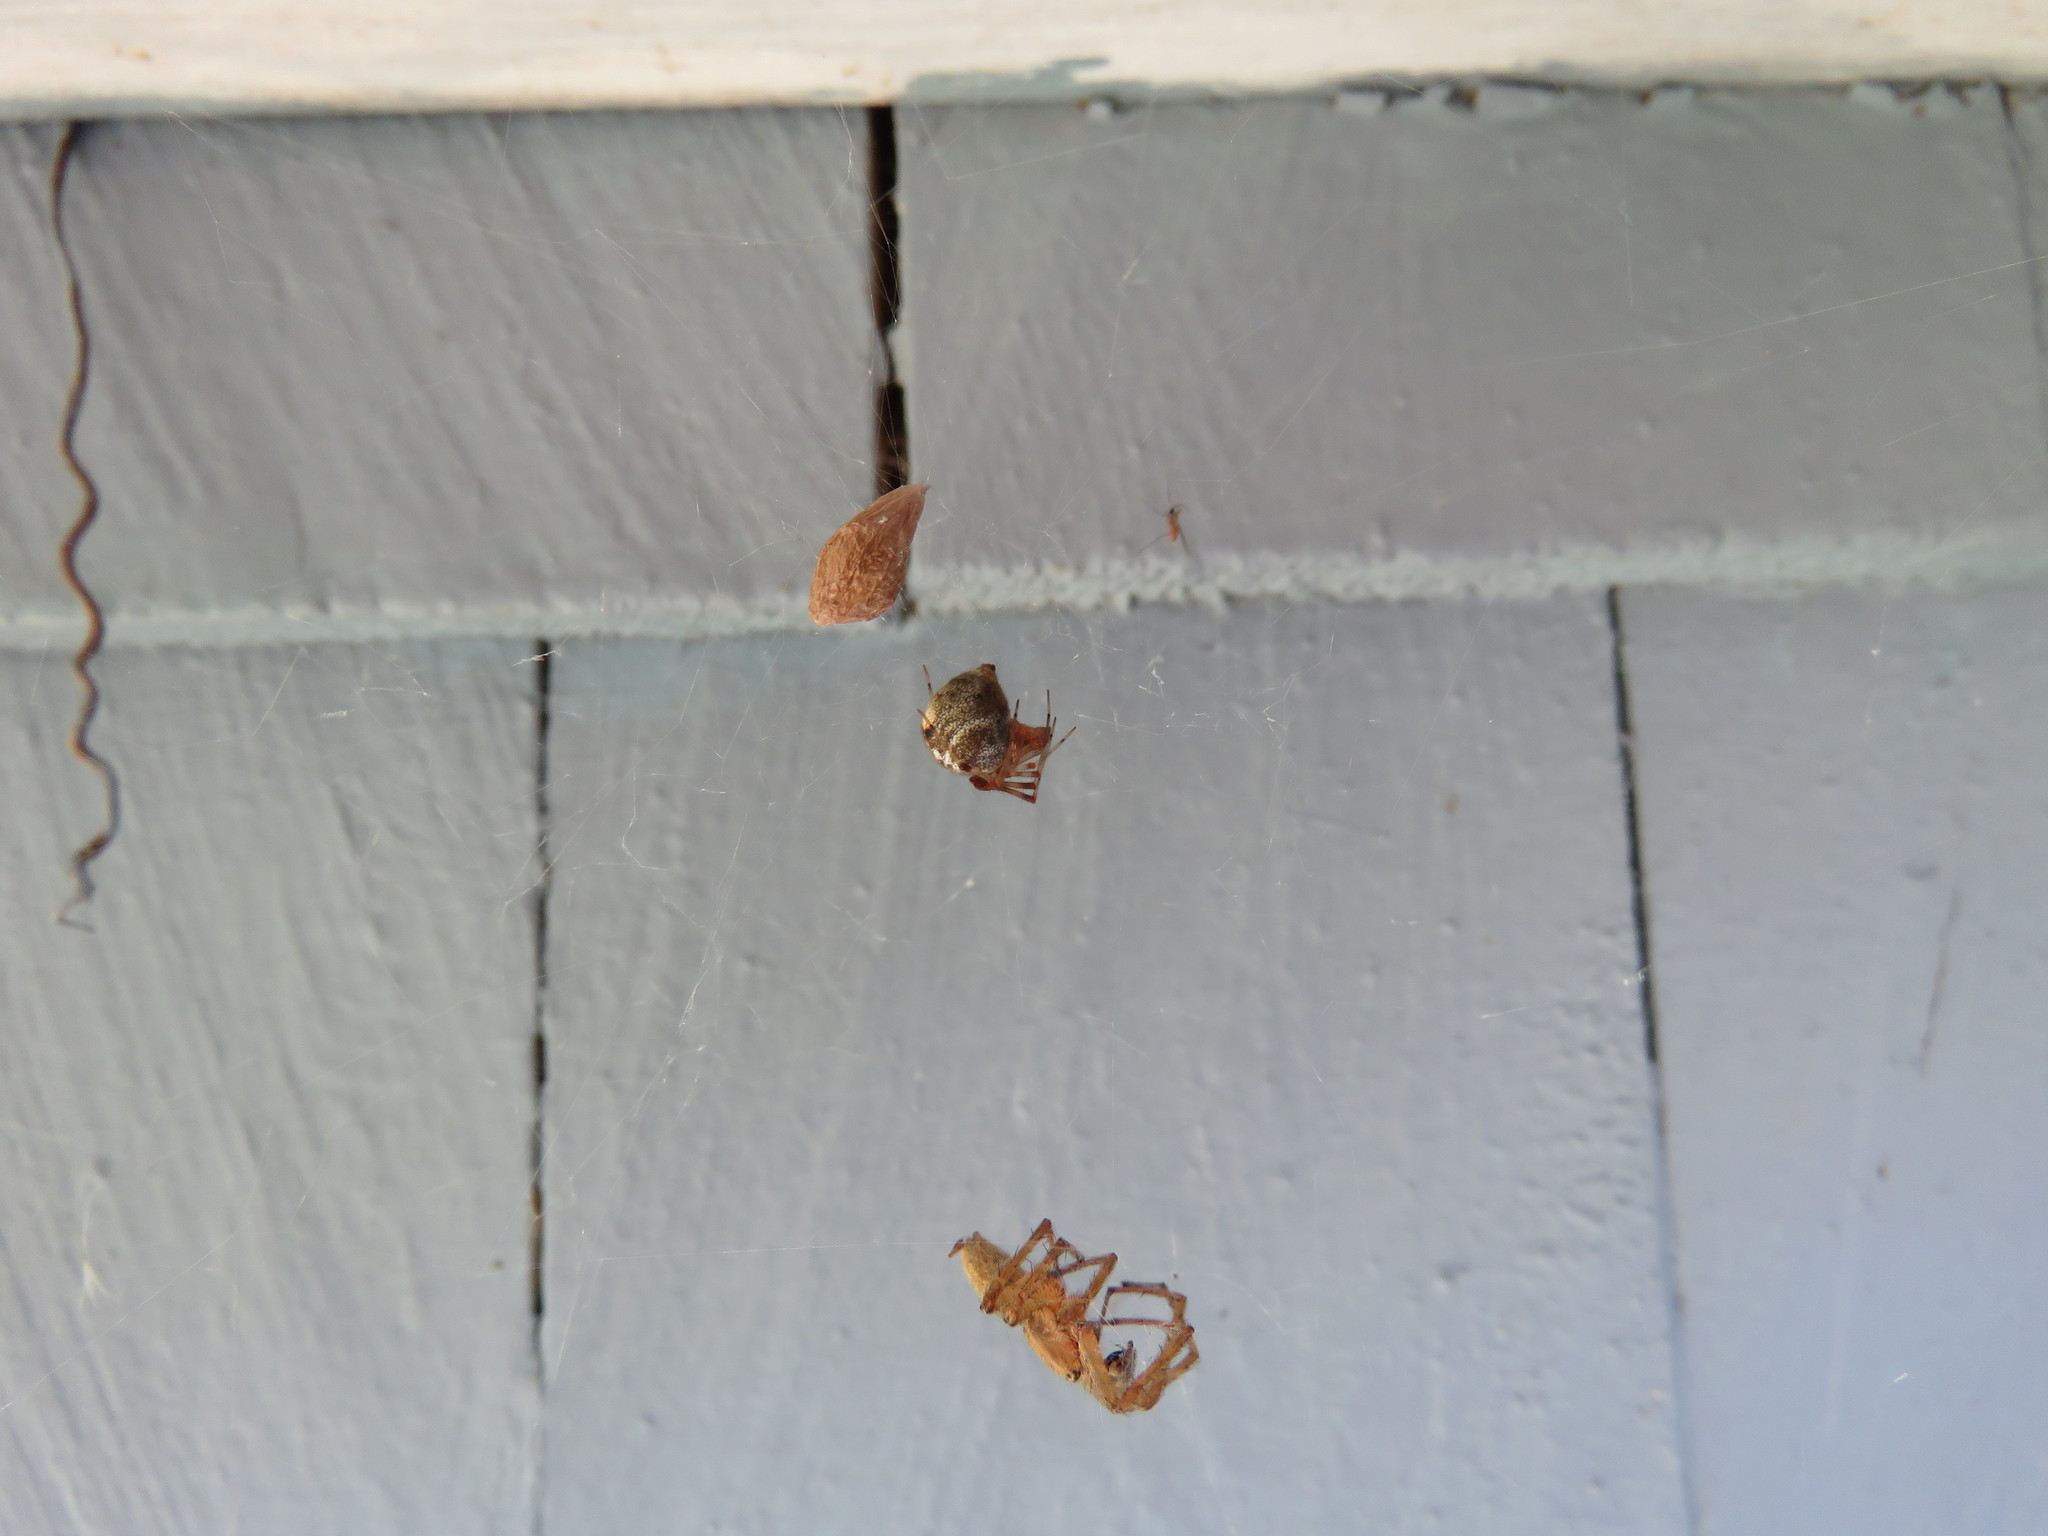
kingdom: Animalia
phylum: Arthropoda
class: Arachnida
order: Araneae
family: Theridiidae
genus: Parasteatoda
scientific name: Parasteatoda tepidariorum
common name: Common house spider
